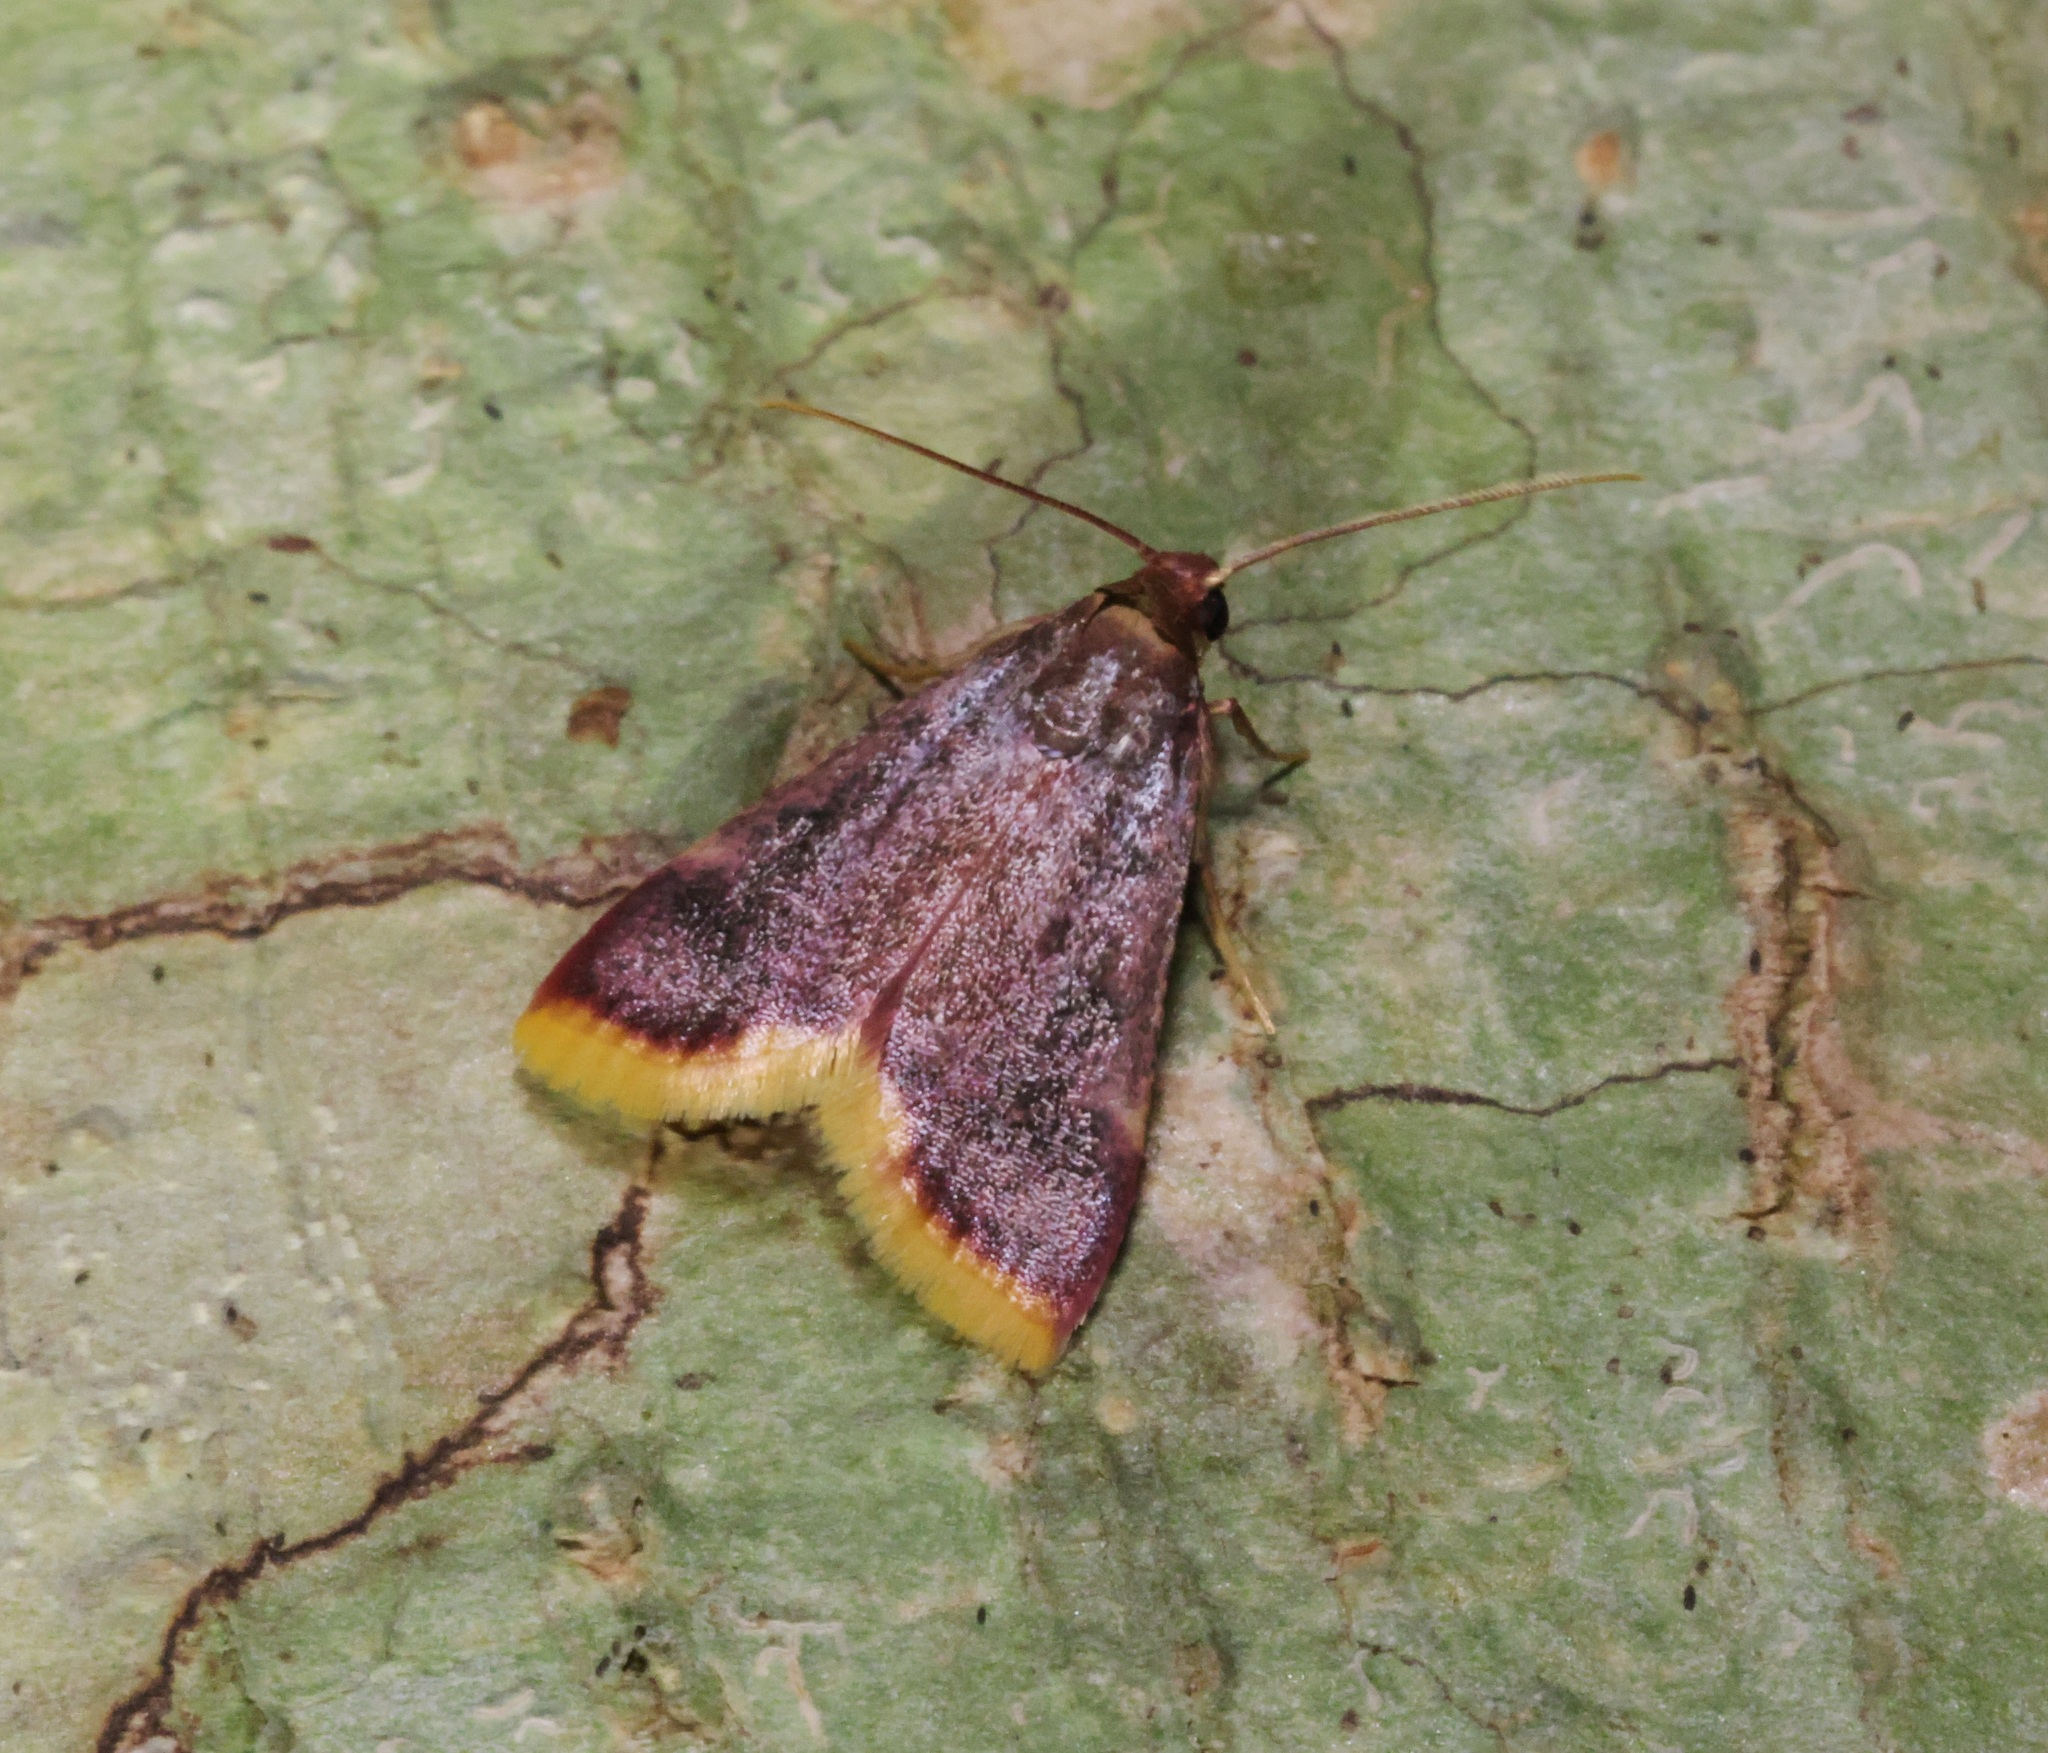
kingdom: Animalia
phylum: Arthropoda
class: Insecta
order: Lepidoptera
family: Pyralidae
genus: Hypsopygia
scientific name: Hypsopygia mauritialis
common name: Moth
